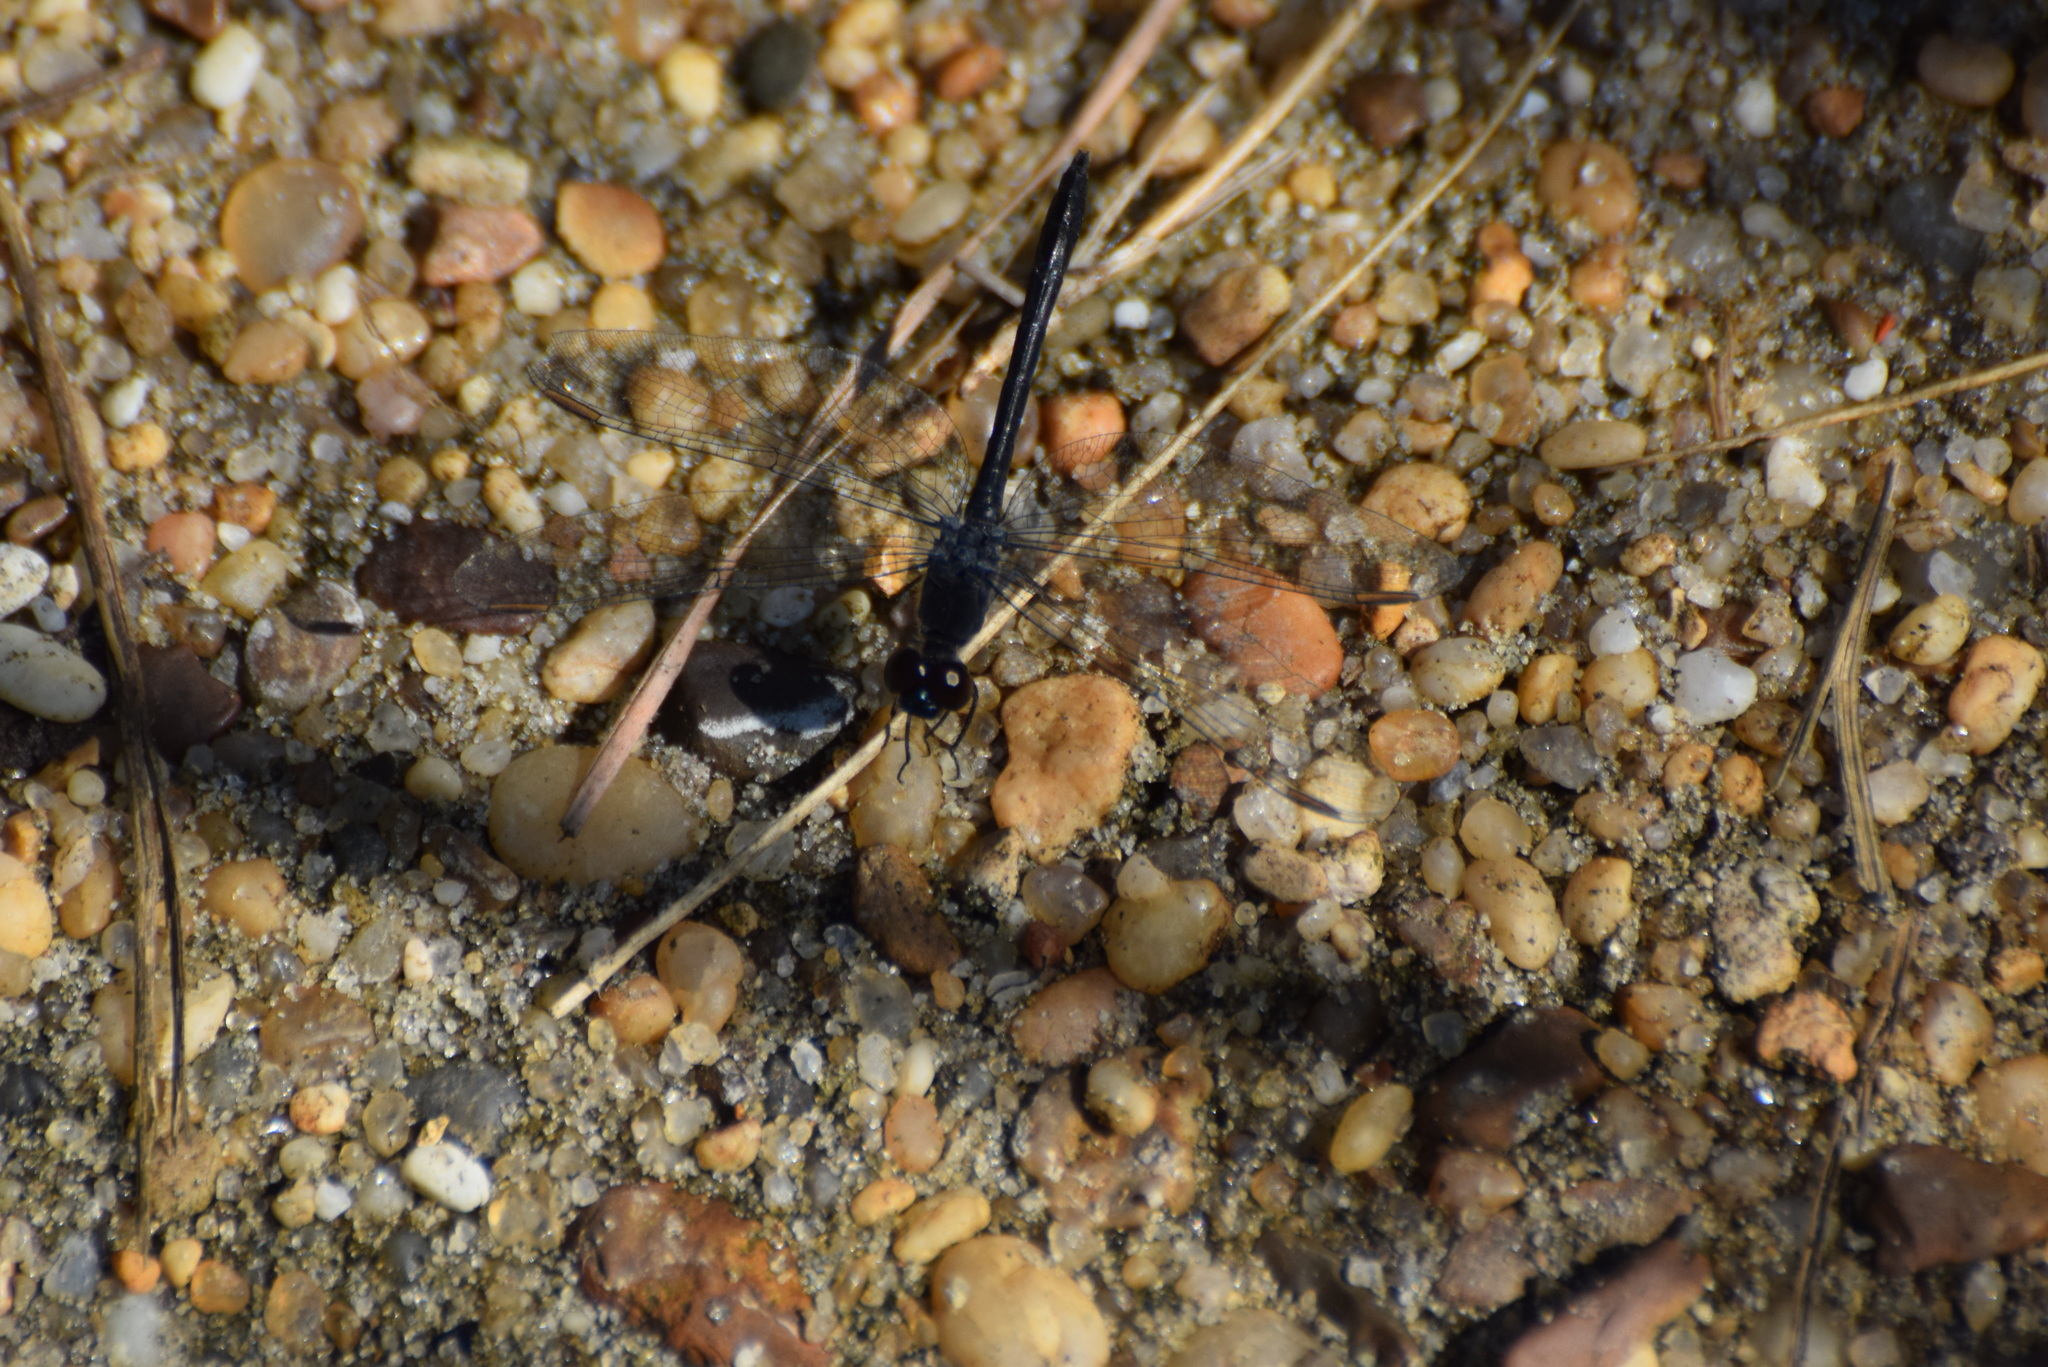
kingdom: Animalia
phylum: Arthropoda
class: Insecta
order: Odonata
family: Libellulidae
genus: Erythrodiplax
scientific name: Erythrodiplax berenice
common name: Seaside dragonlet
